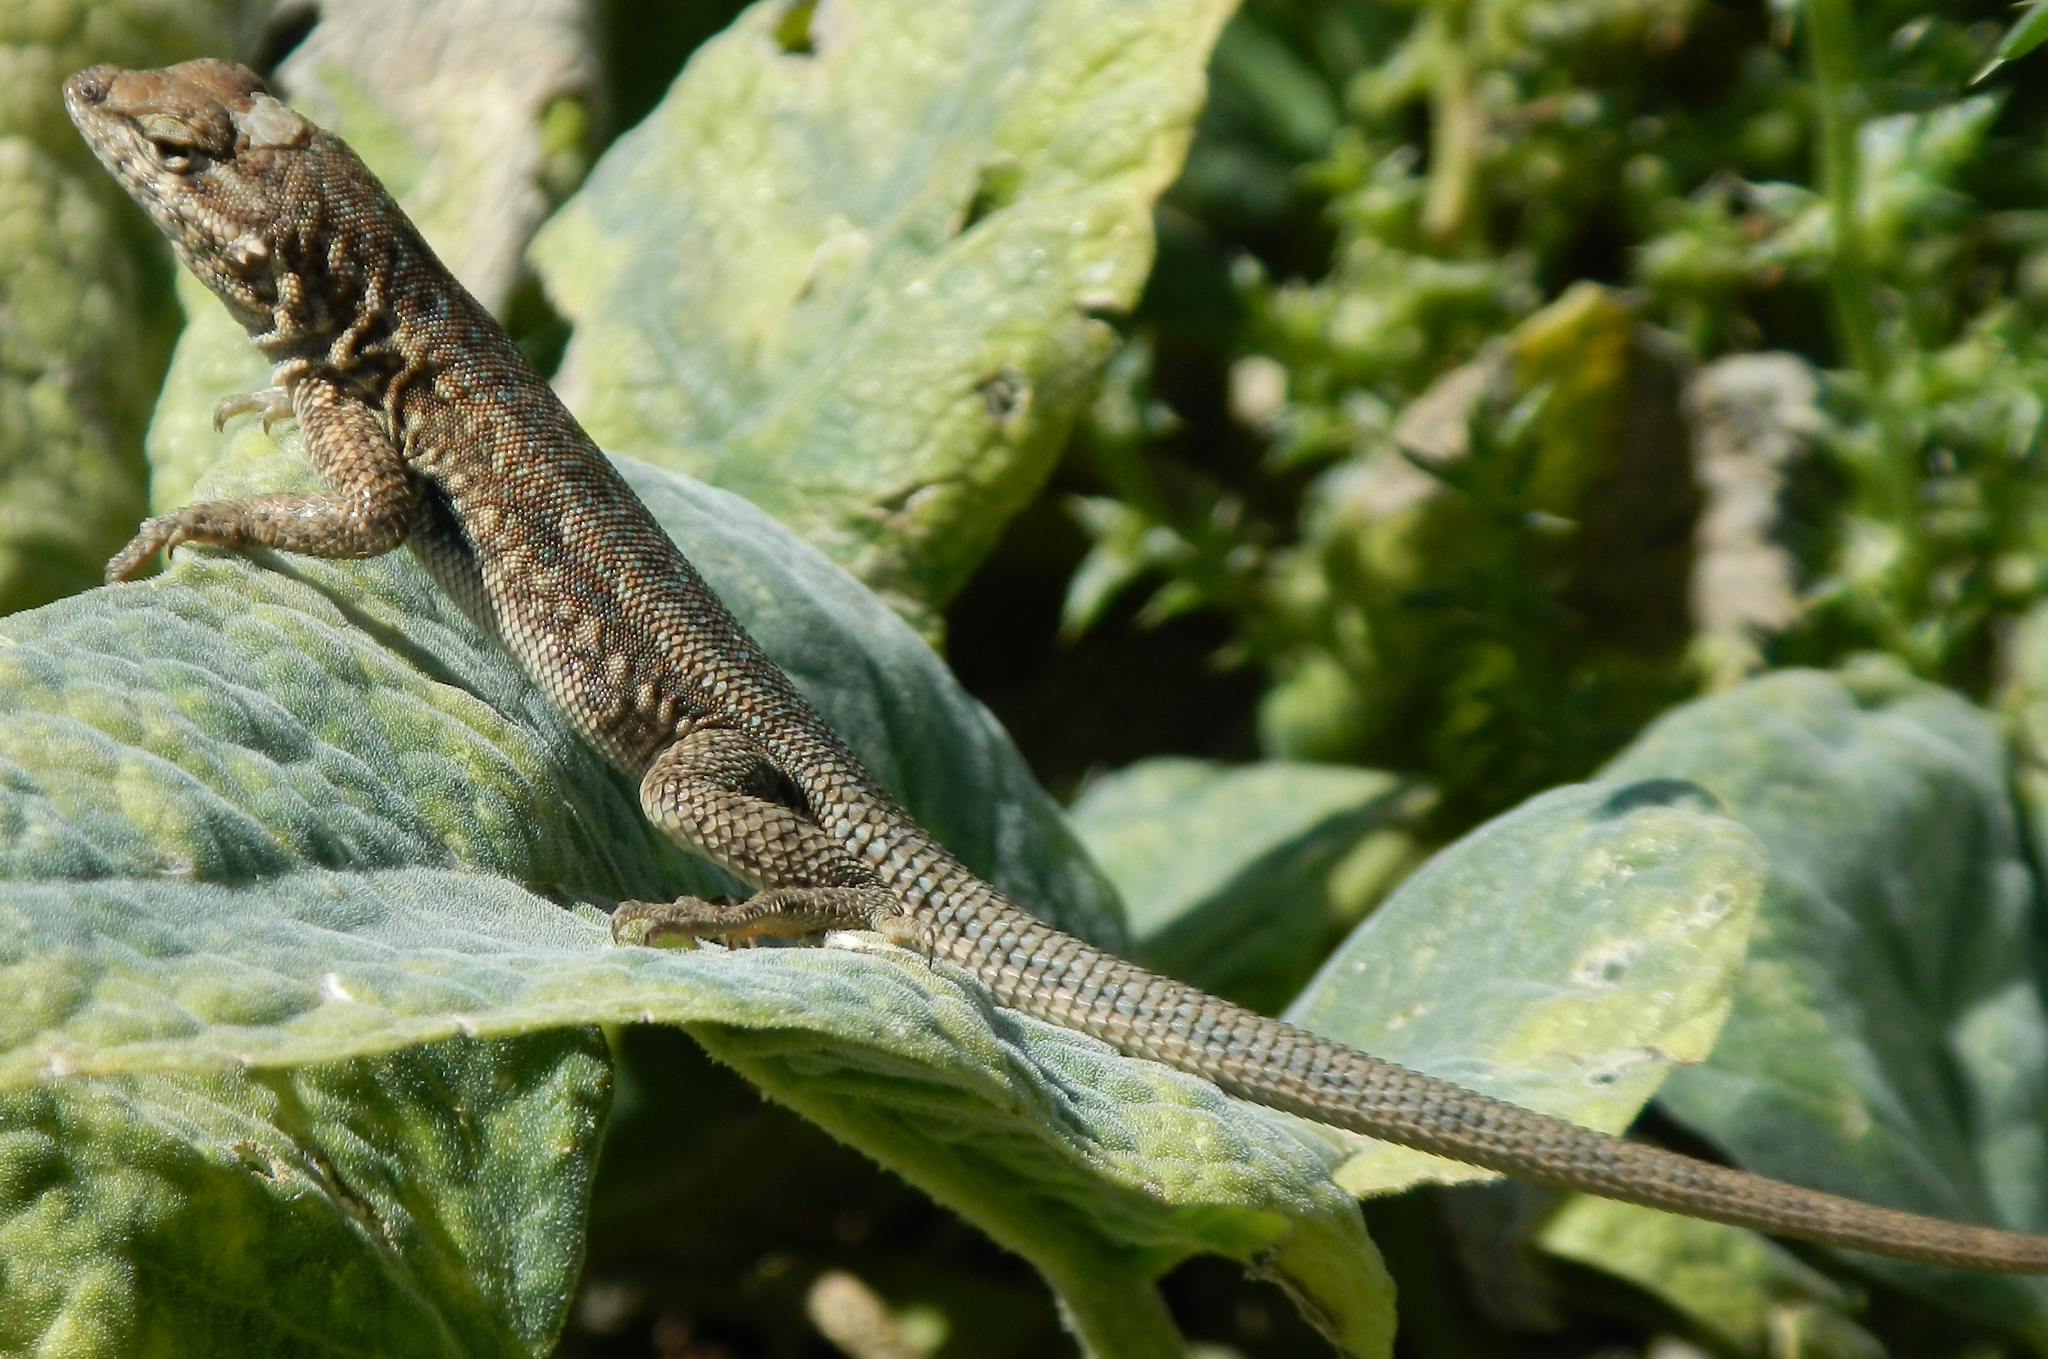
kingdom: Animalia
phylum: Chordata
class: Squamata
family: Phrynosomatidae
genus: Uta
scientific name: Uta stansburiana
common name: Side-blotched lizard
